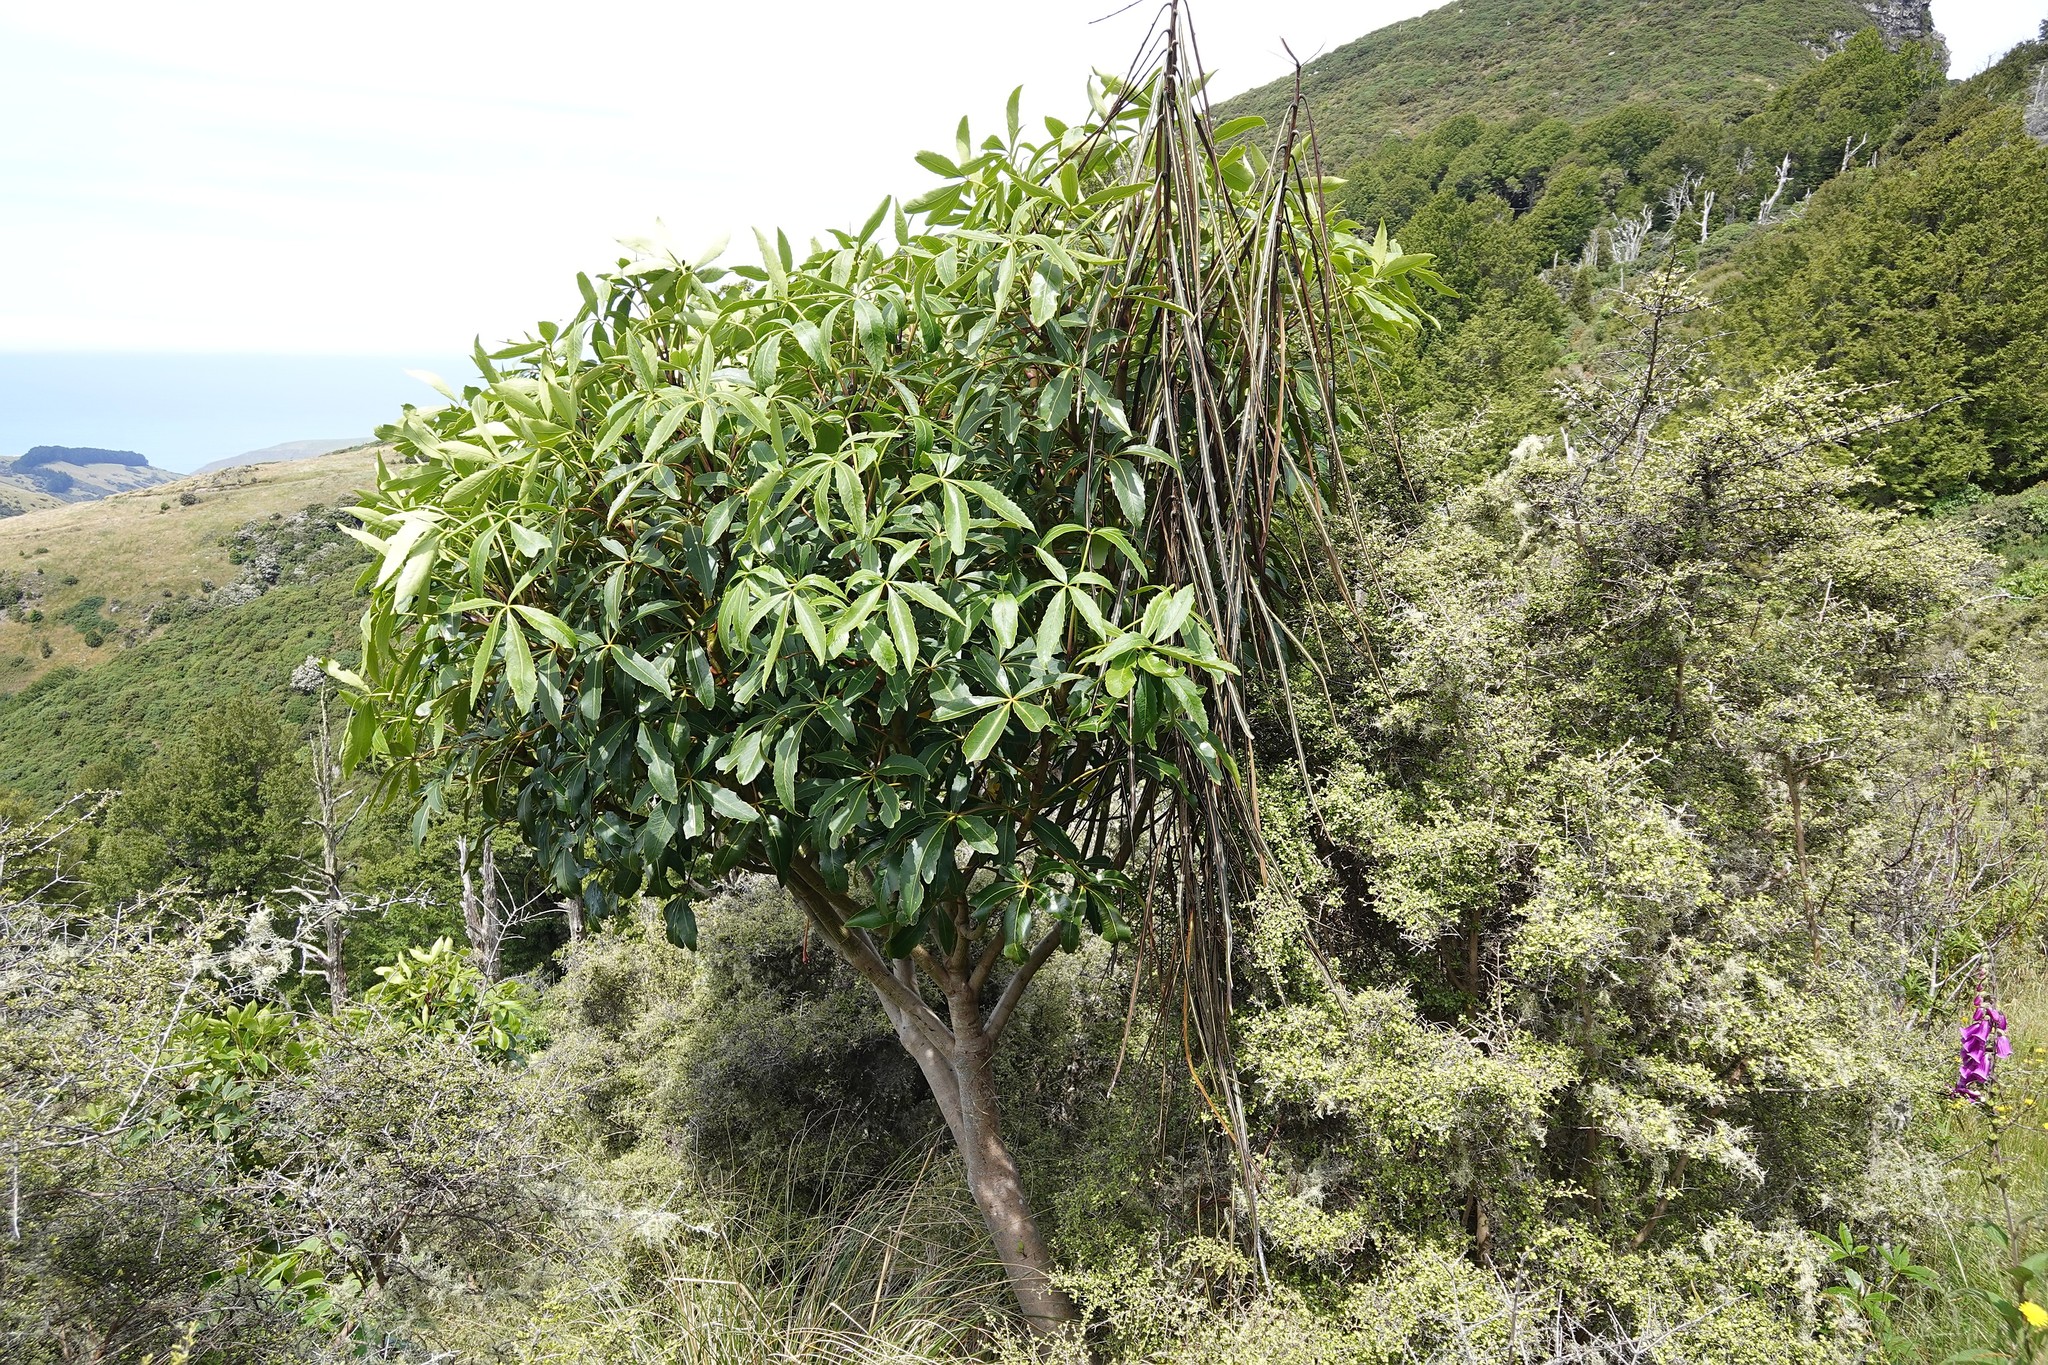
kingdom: Plantae
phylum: Tracheophyta
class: Magnoliopsida
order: Apiales
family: Araliaceae
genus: Neopanax
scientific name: Neopanax colensoi
